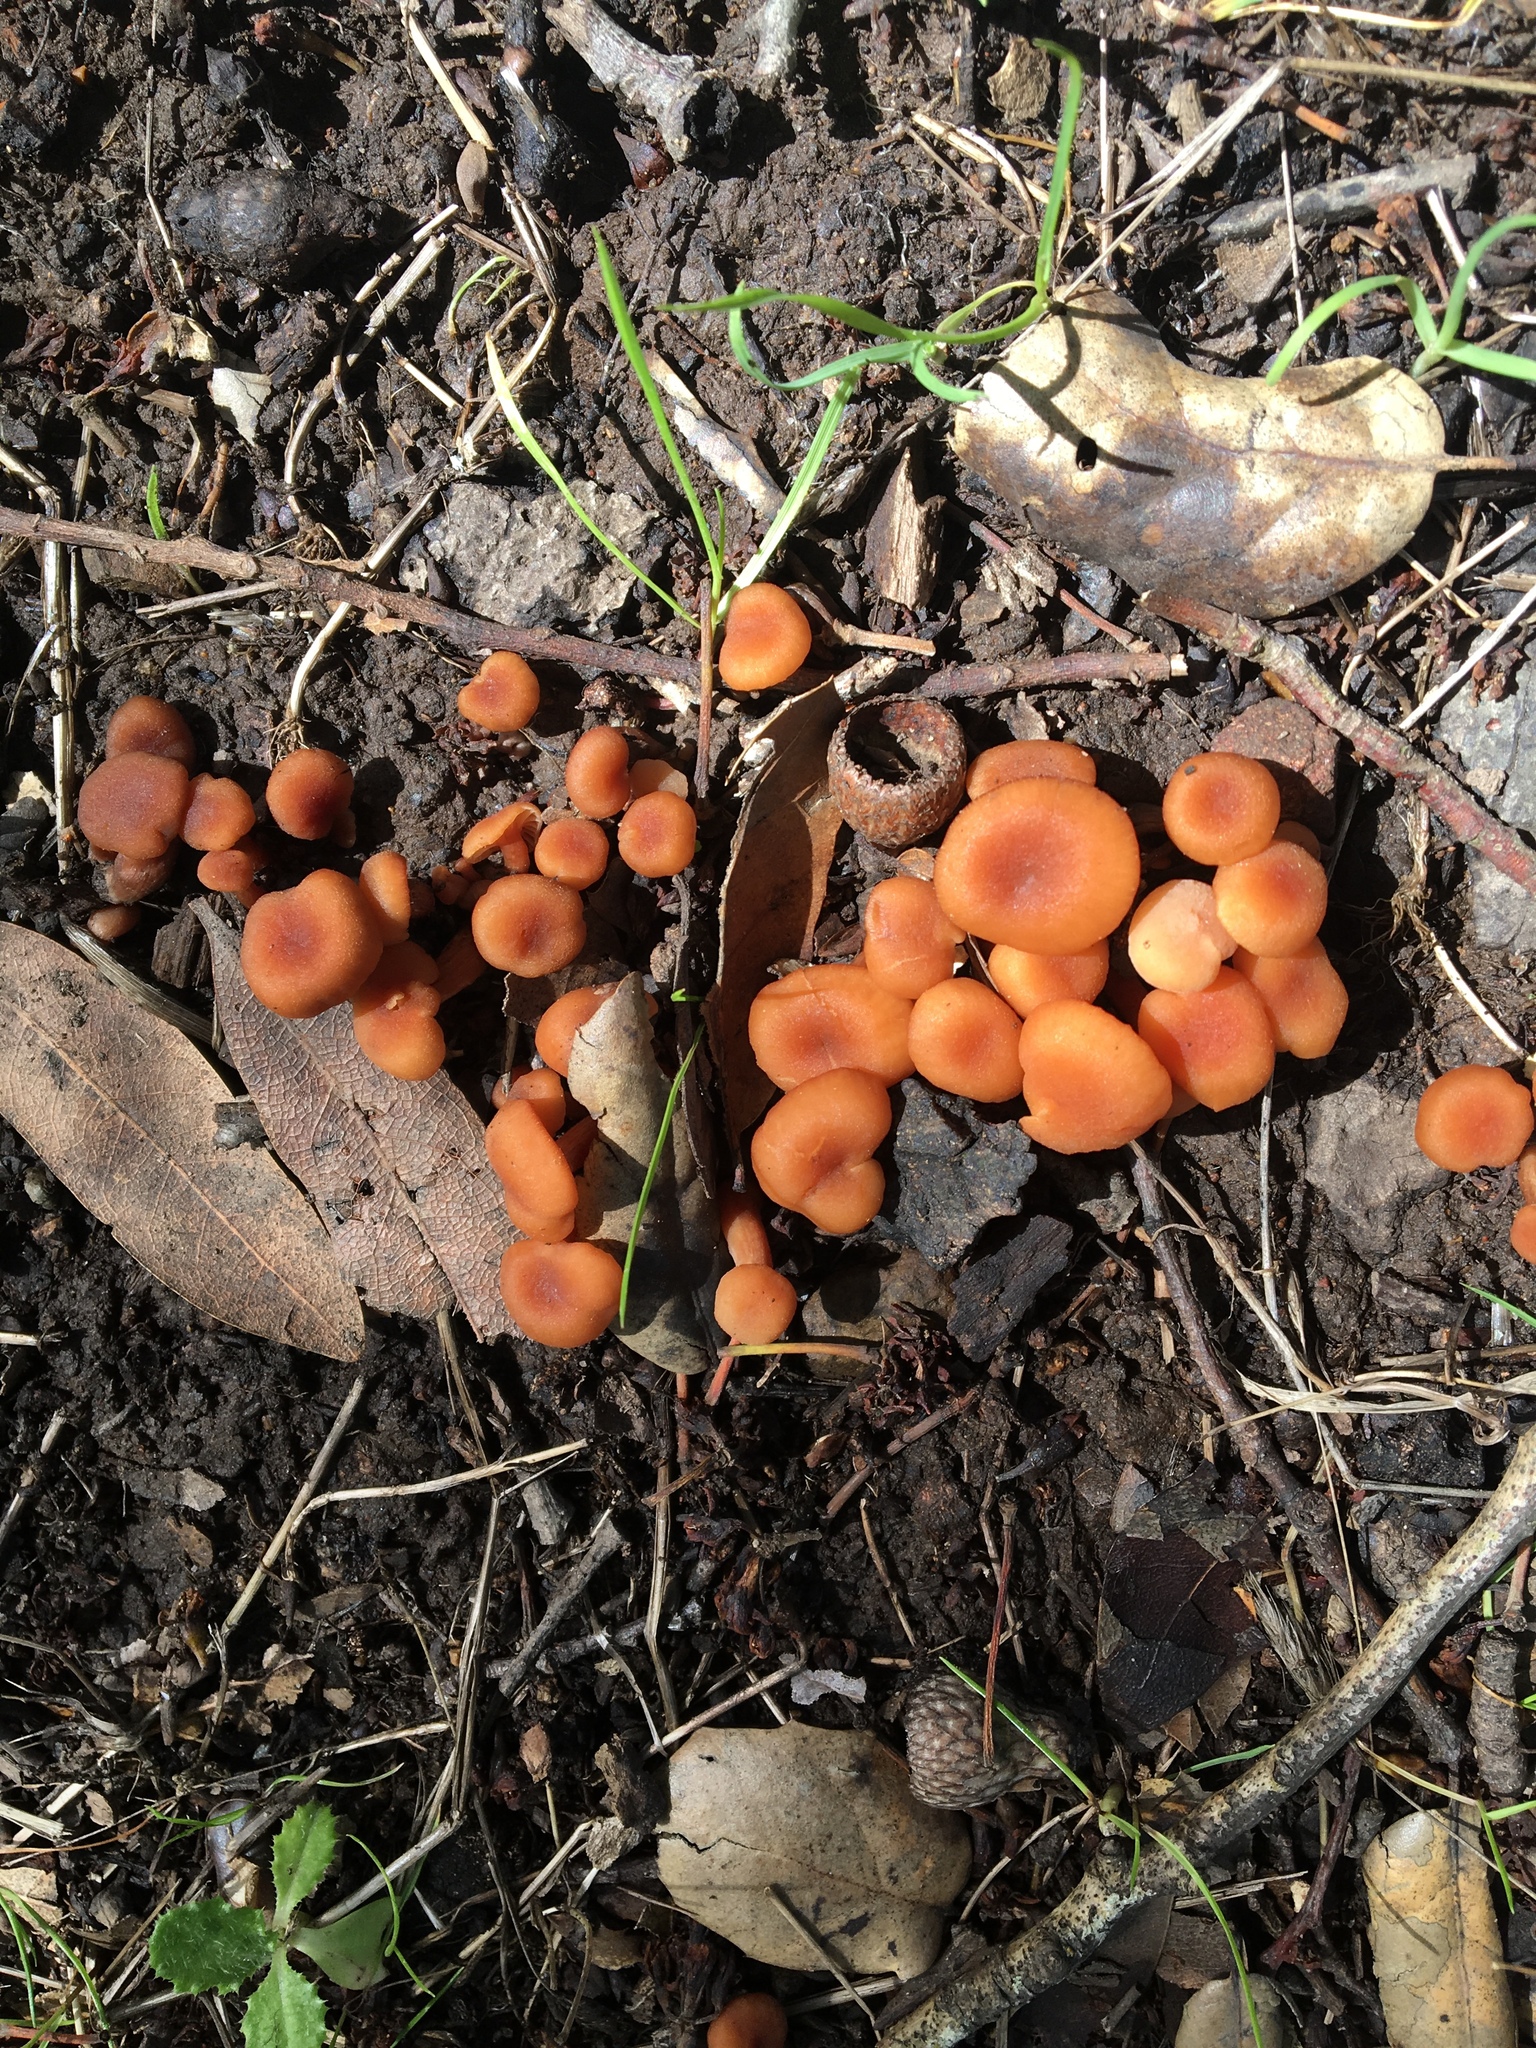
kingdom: Fungi
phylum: Basidiomycota
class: Agaricomycetes
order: Agaricales
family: Hydnangiaceae
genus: Laccaria
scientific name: Laccaria laccata
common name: Deceiver
